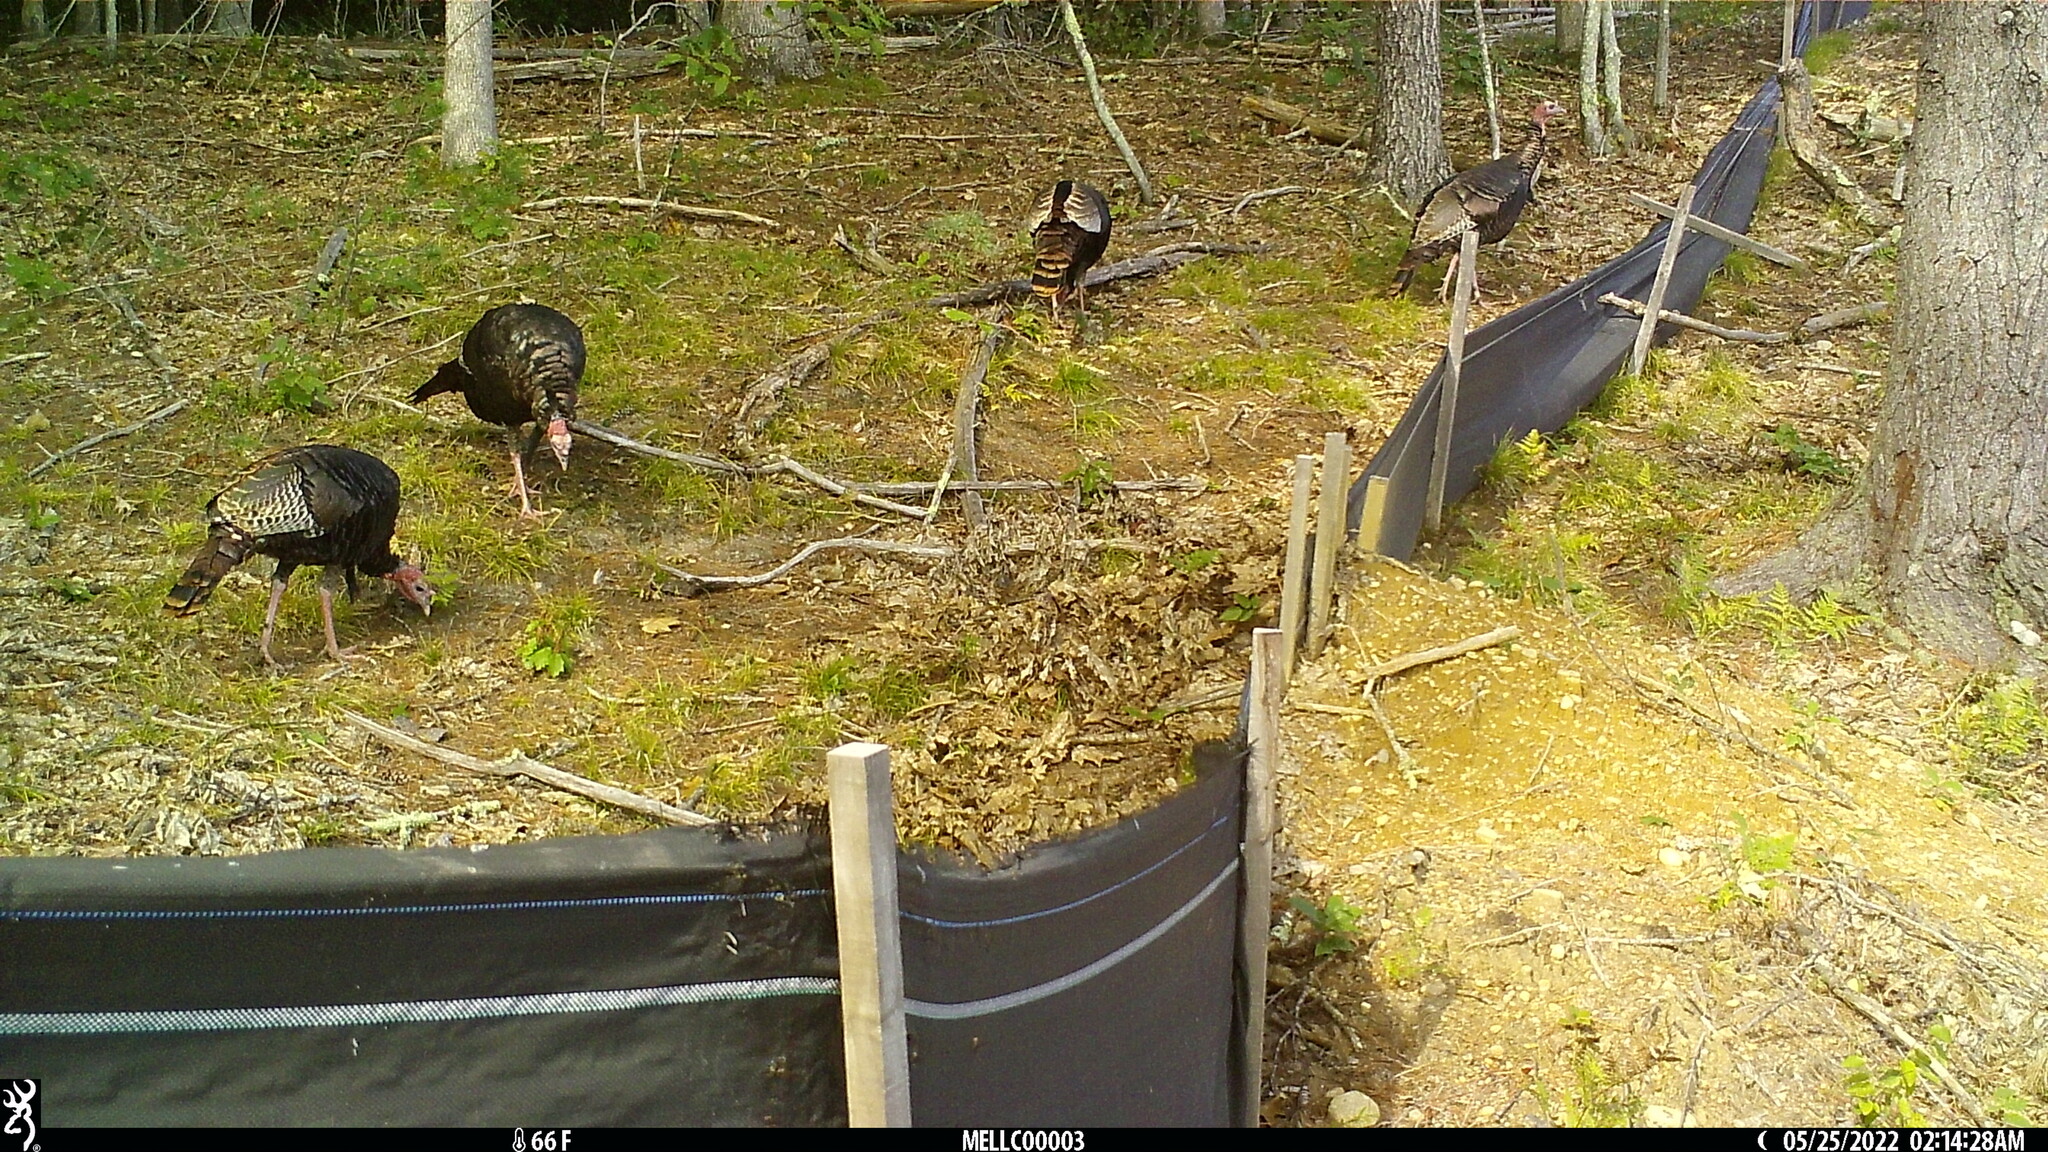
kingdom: Animalia
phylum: Chordata
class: Aves
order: Galliformes
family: Phasianidae
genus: Meleagris
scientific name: Meleagris gallopavo
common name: Wild turkey
